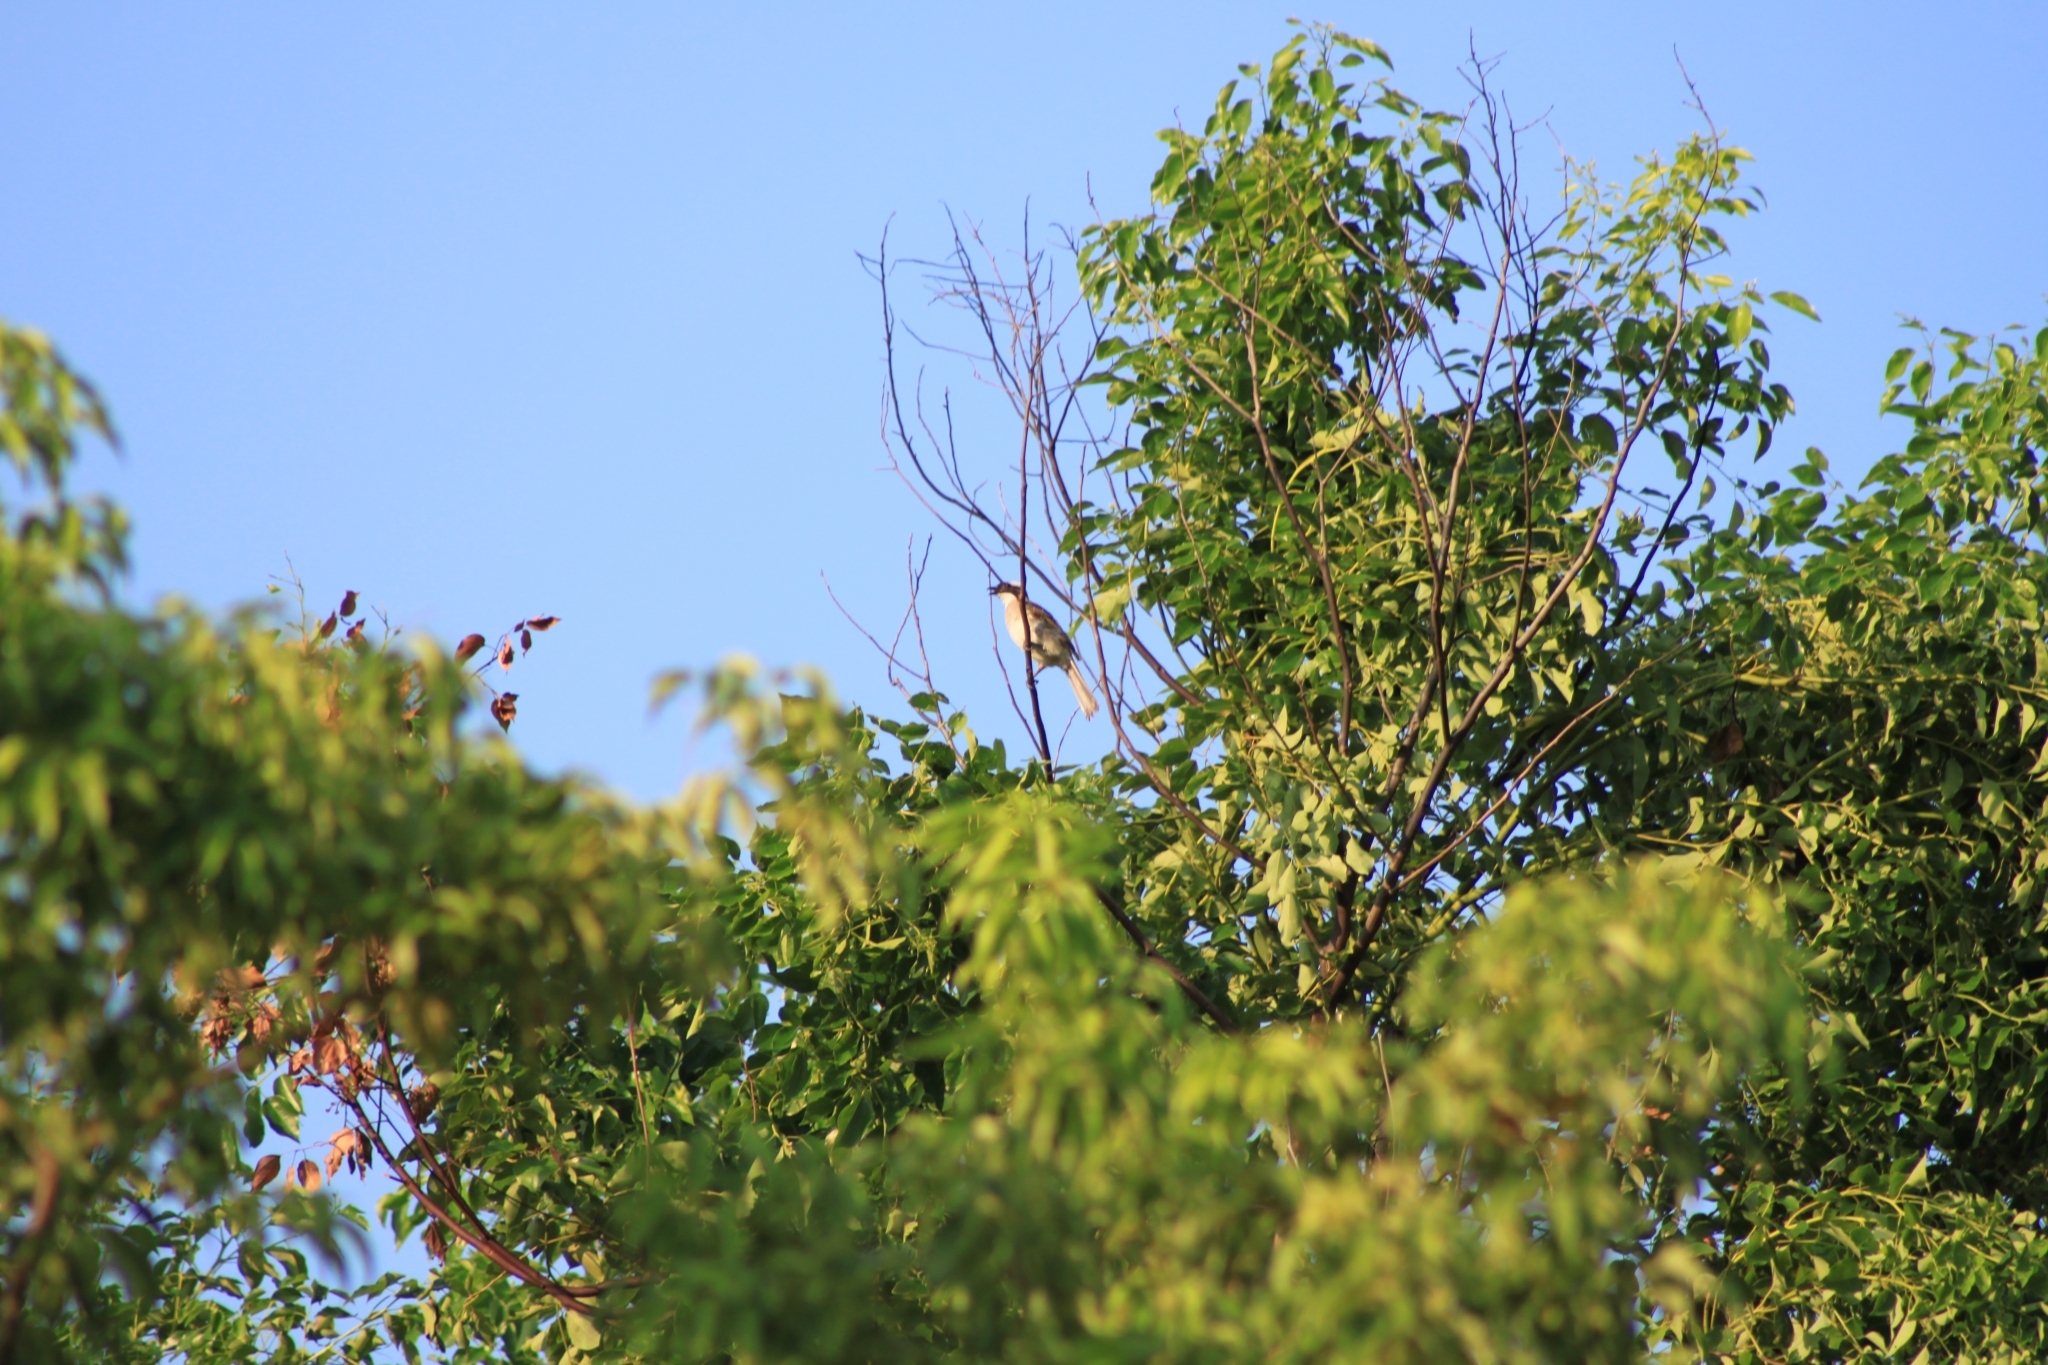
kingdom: Animalia
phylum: Chordata
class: Aves
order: Passeriformes
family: Pycnonotidae
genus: Pycnonotus
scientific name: Pycnonotus sinensis
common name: Light-vented bulbul
